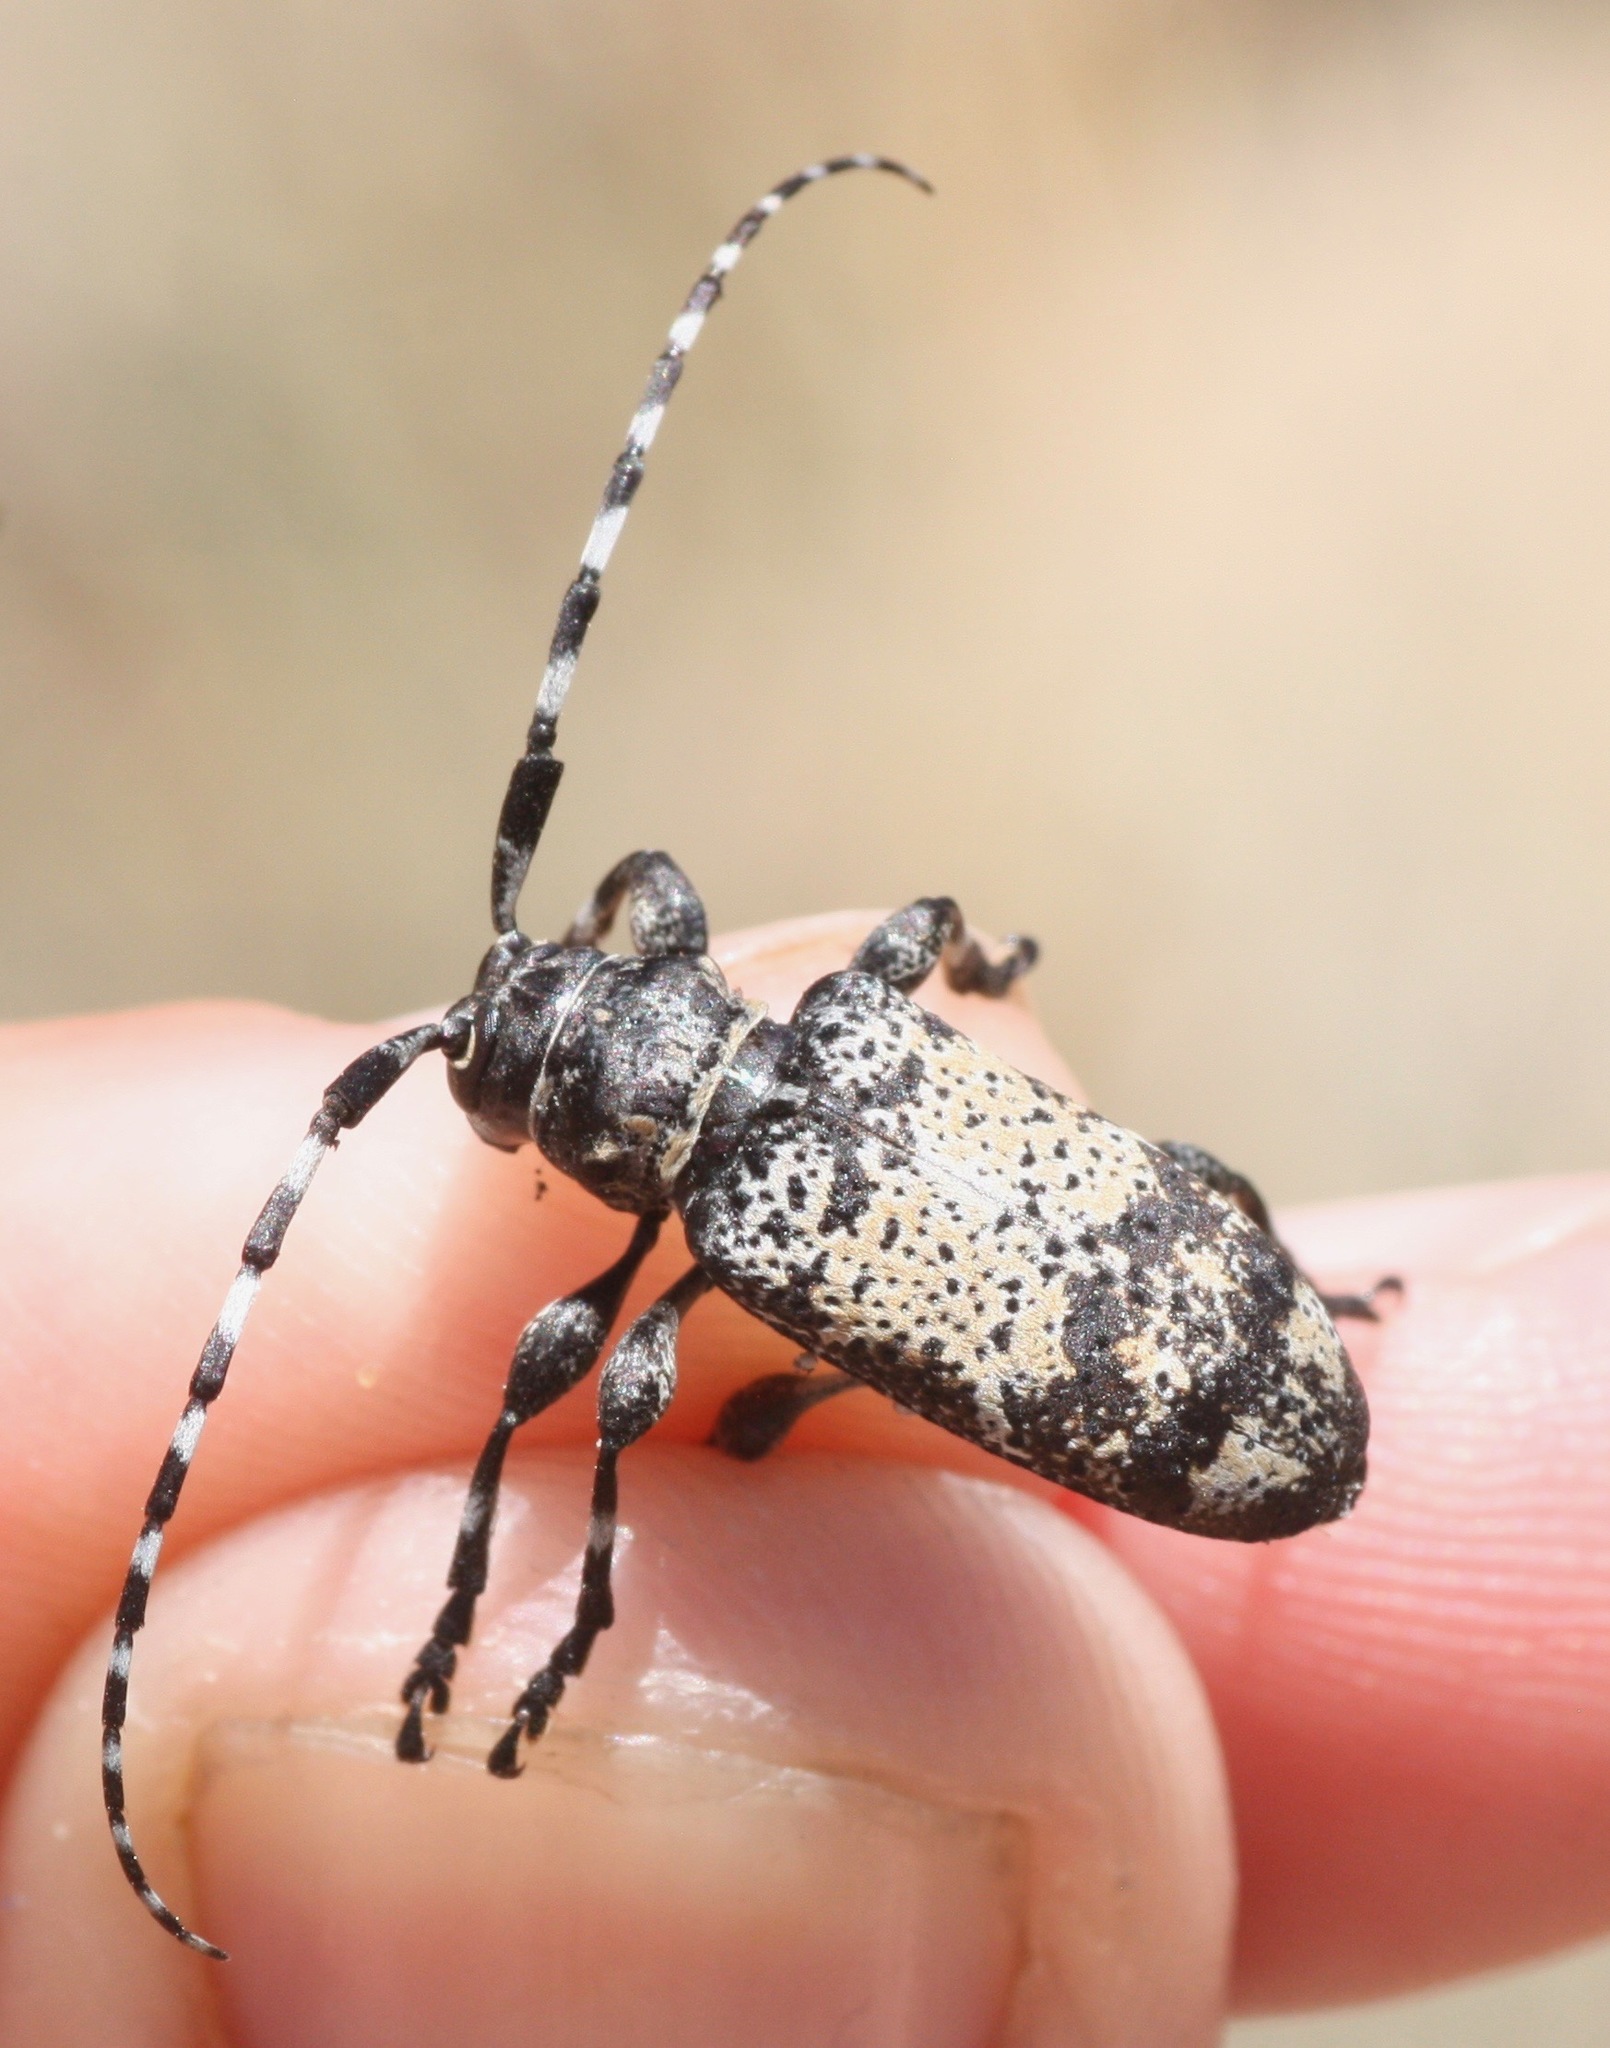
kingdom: Animalia
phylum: Arthropoda
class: Insecta
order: Coleoptera
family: Cerambycidae
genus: Coenopoeus
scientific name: Coenopoeus palmeri
